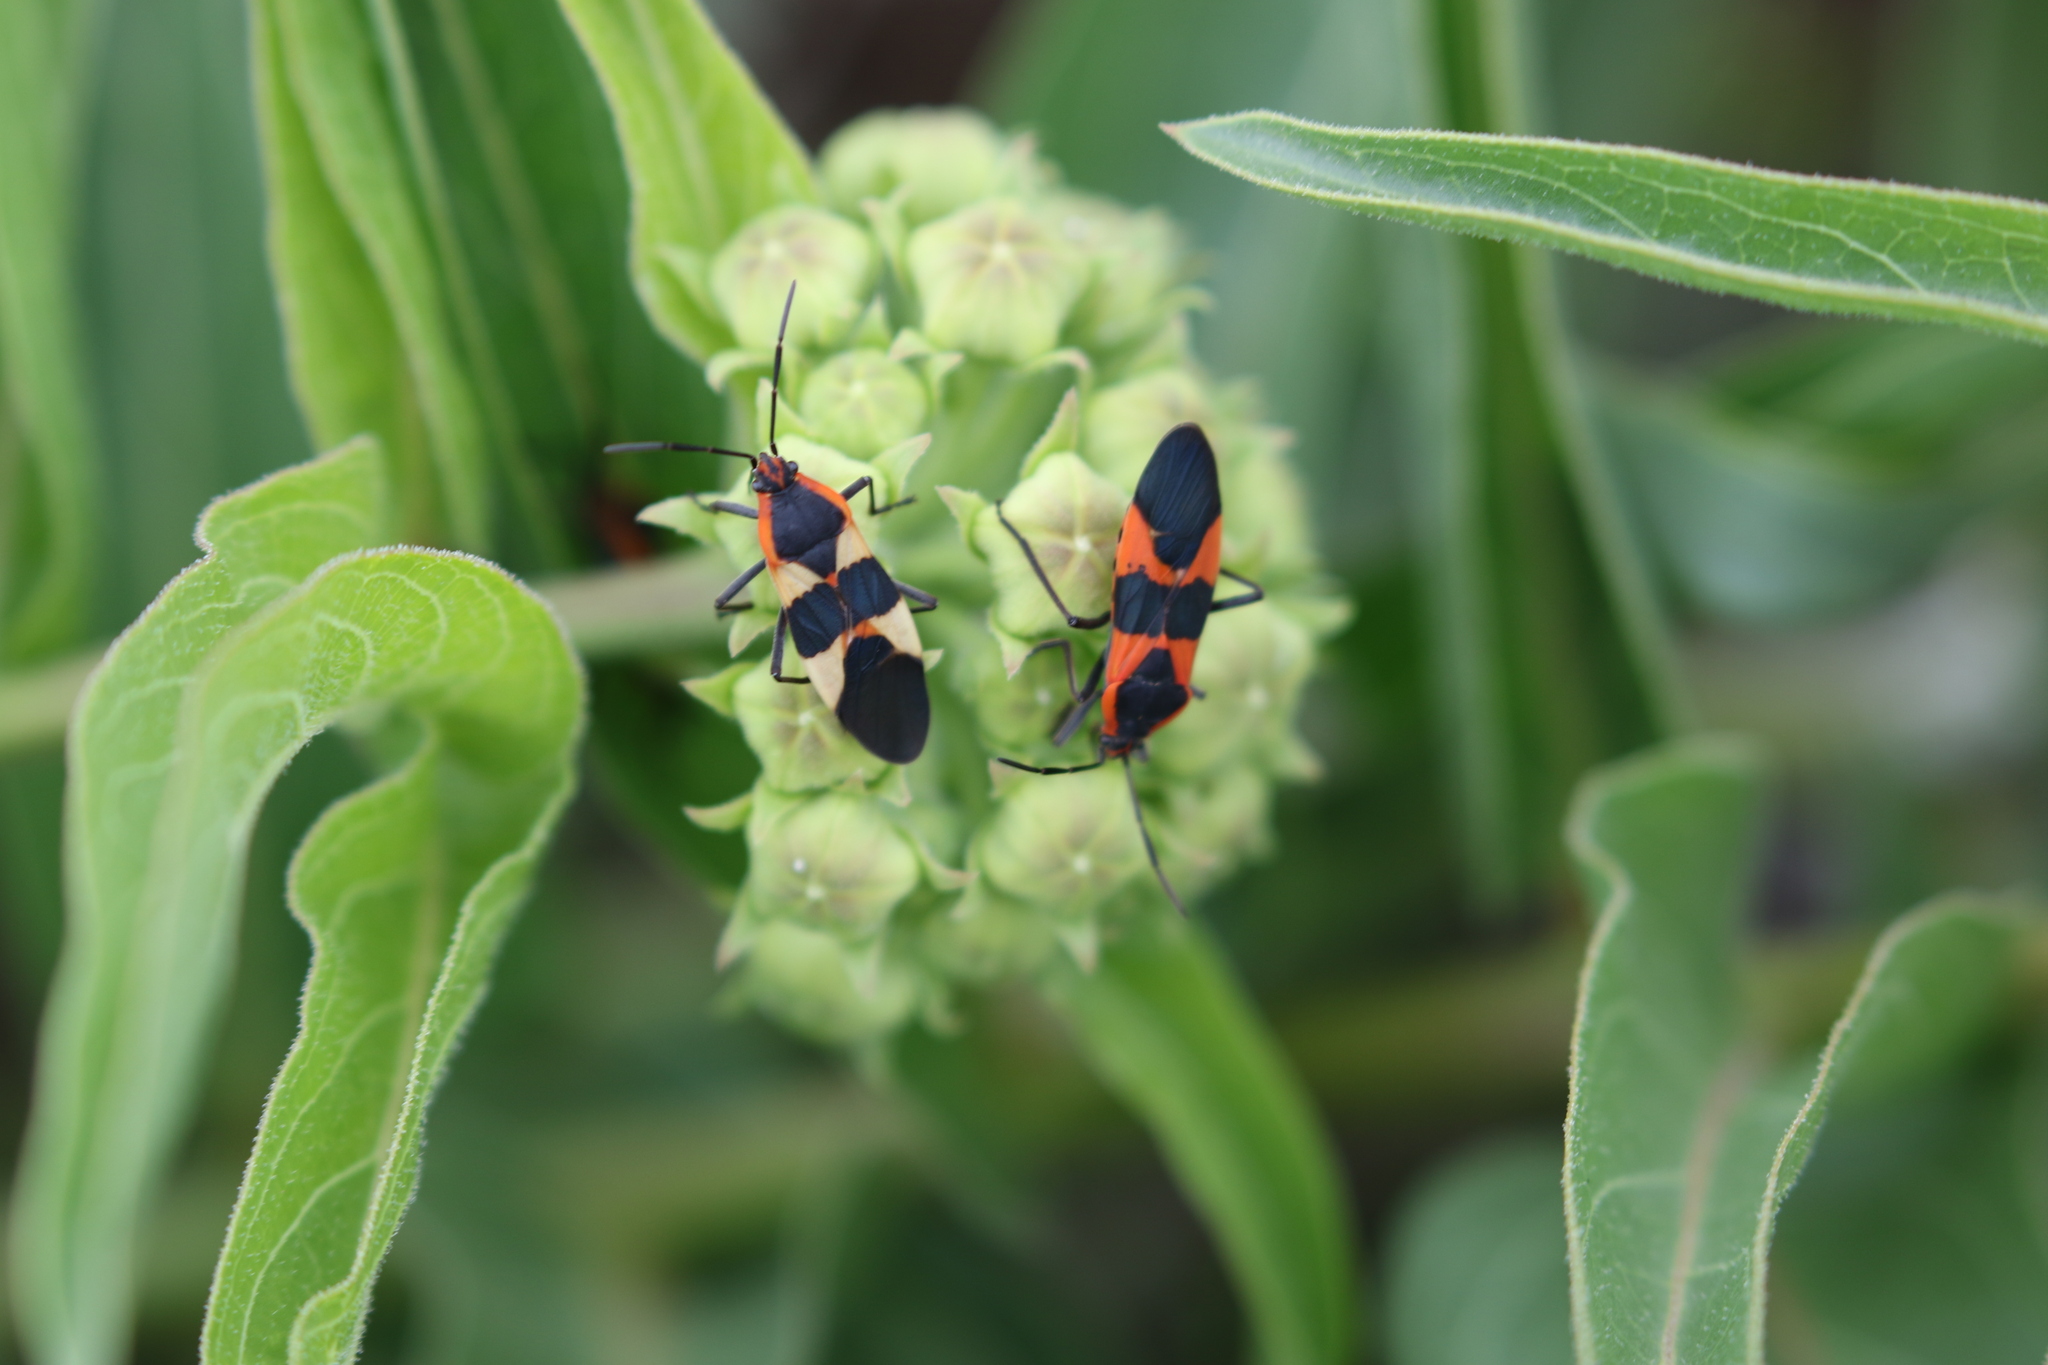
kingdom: Animalia
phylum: Arthropoda
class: Insecta
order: Hemiptera
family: Lygaeidae
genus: Oncopeltus
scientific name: Oncopeltus fasciatus
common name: Large milkweed bug
